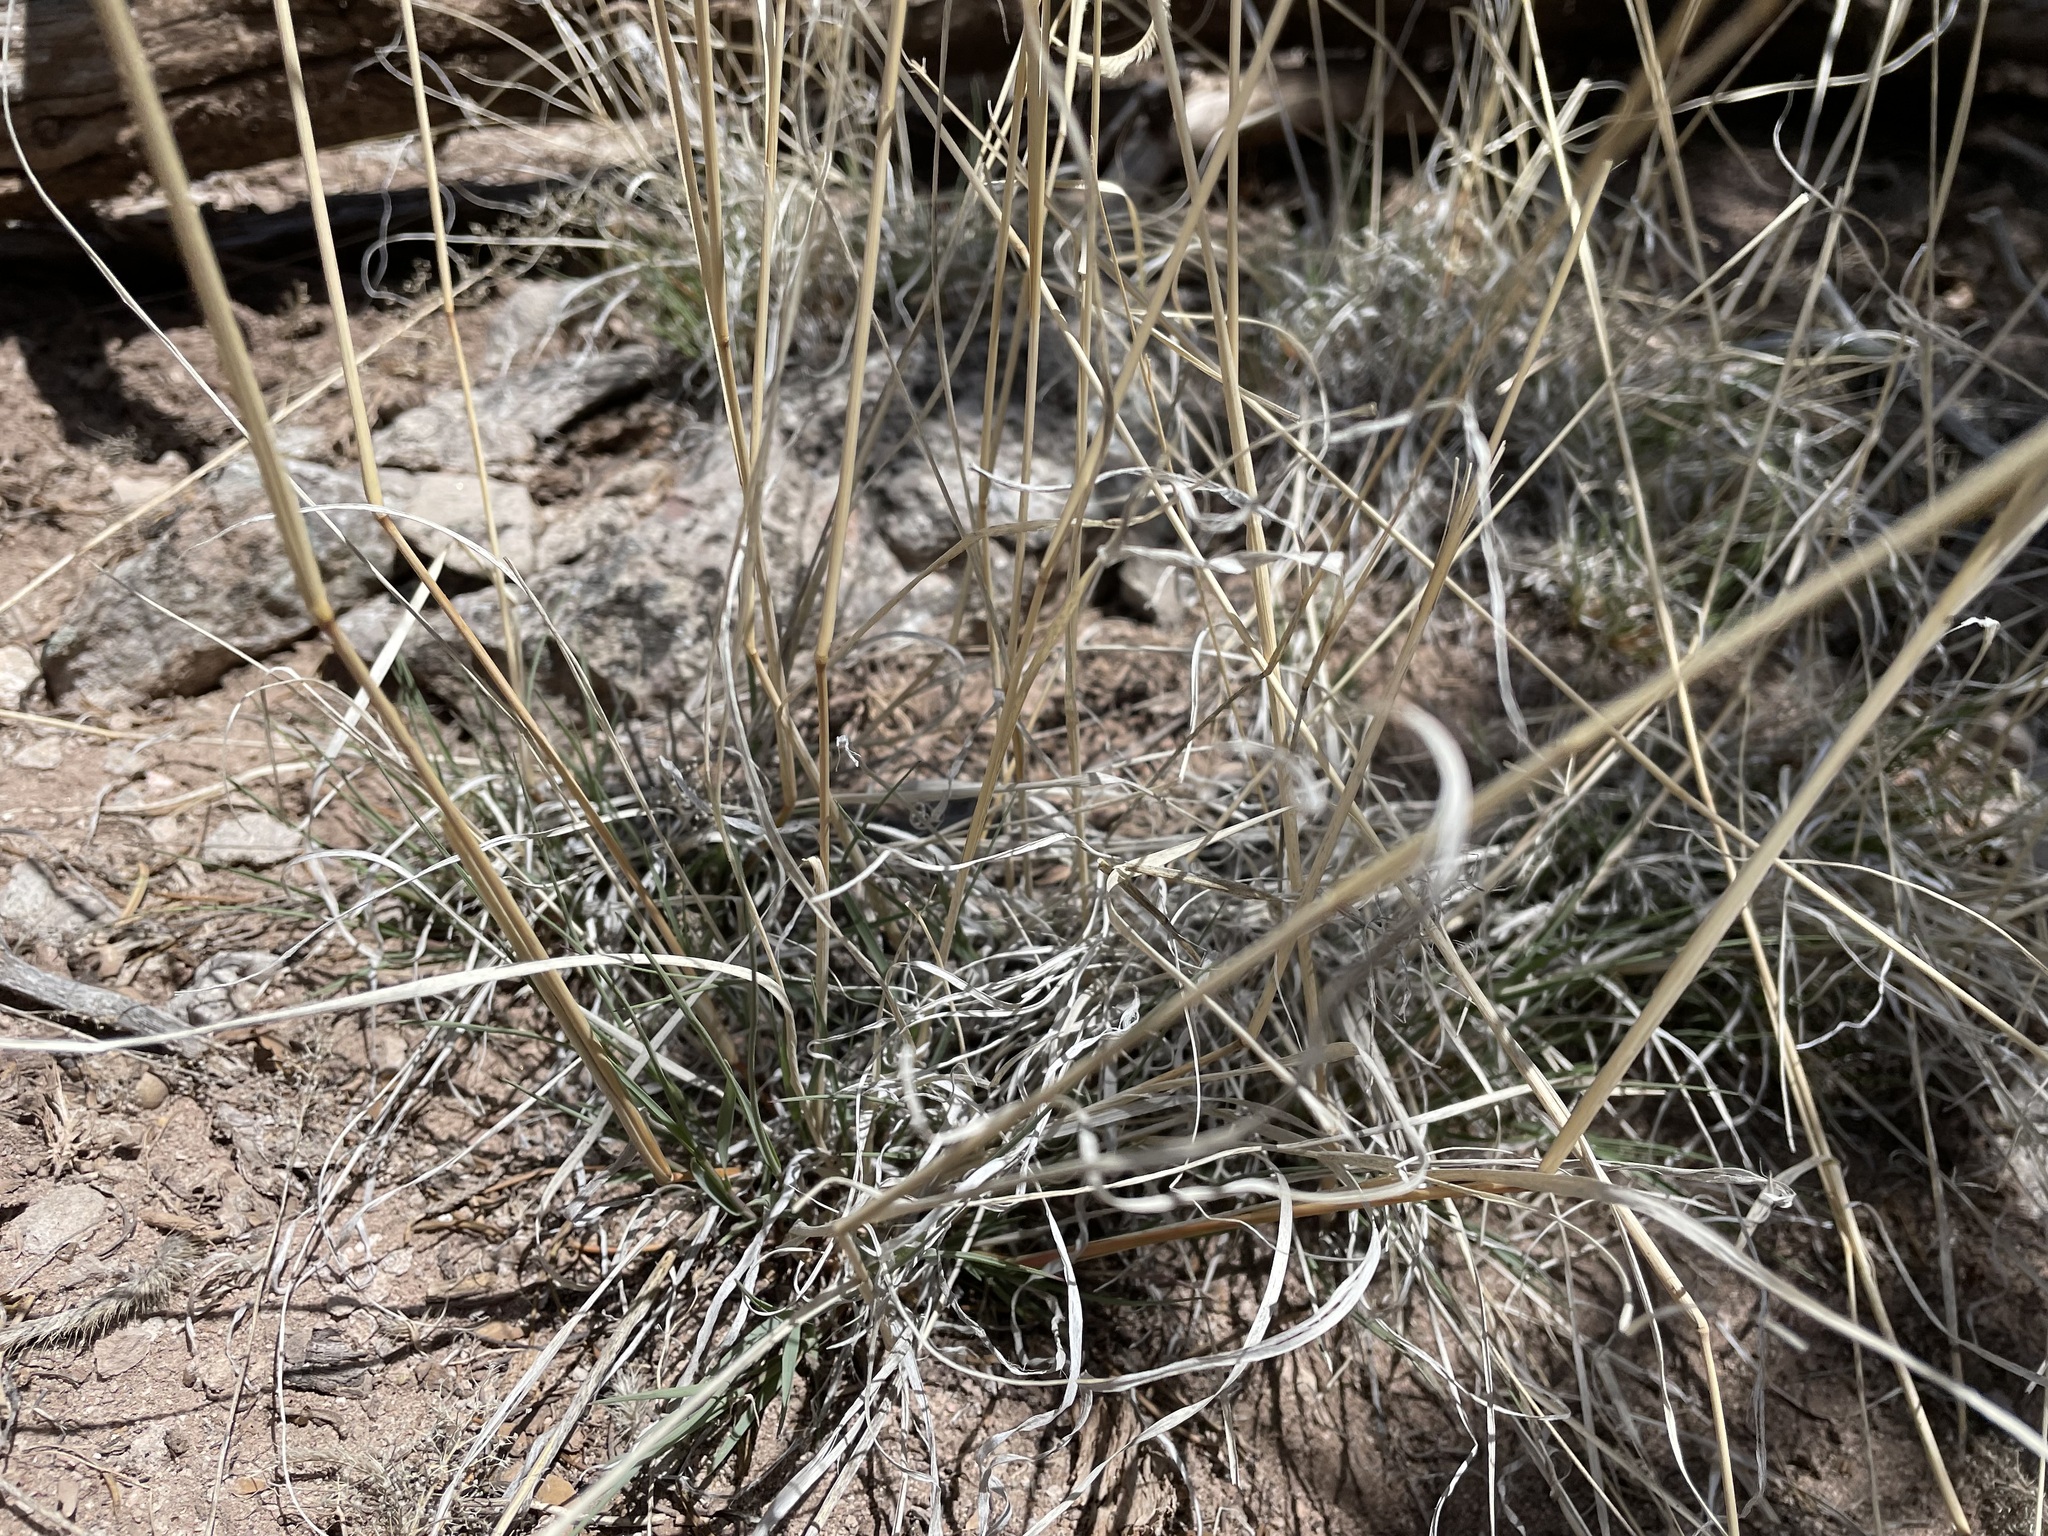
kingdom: Plantae
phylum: Tracheophyta
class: Liliopsida
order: Poales
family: Poaceae
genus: Bouteloua
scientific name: Bouteloua gracilis
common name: Blue grama
